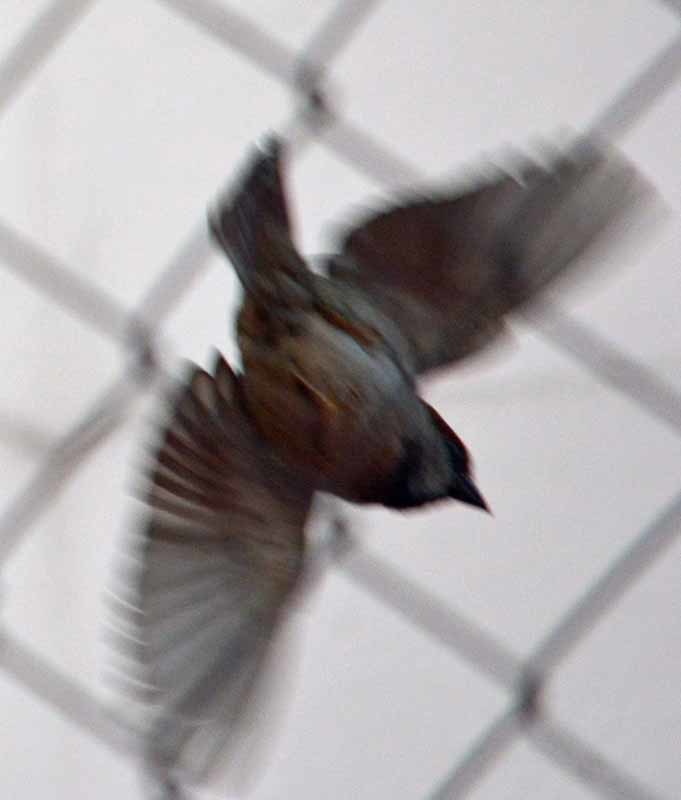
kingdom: Animalia
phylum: Chordata
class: Aves
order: Passeriformes
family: Passeridae
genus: Passer
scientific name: Passer domesticus
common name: House sparrow
